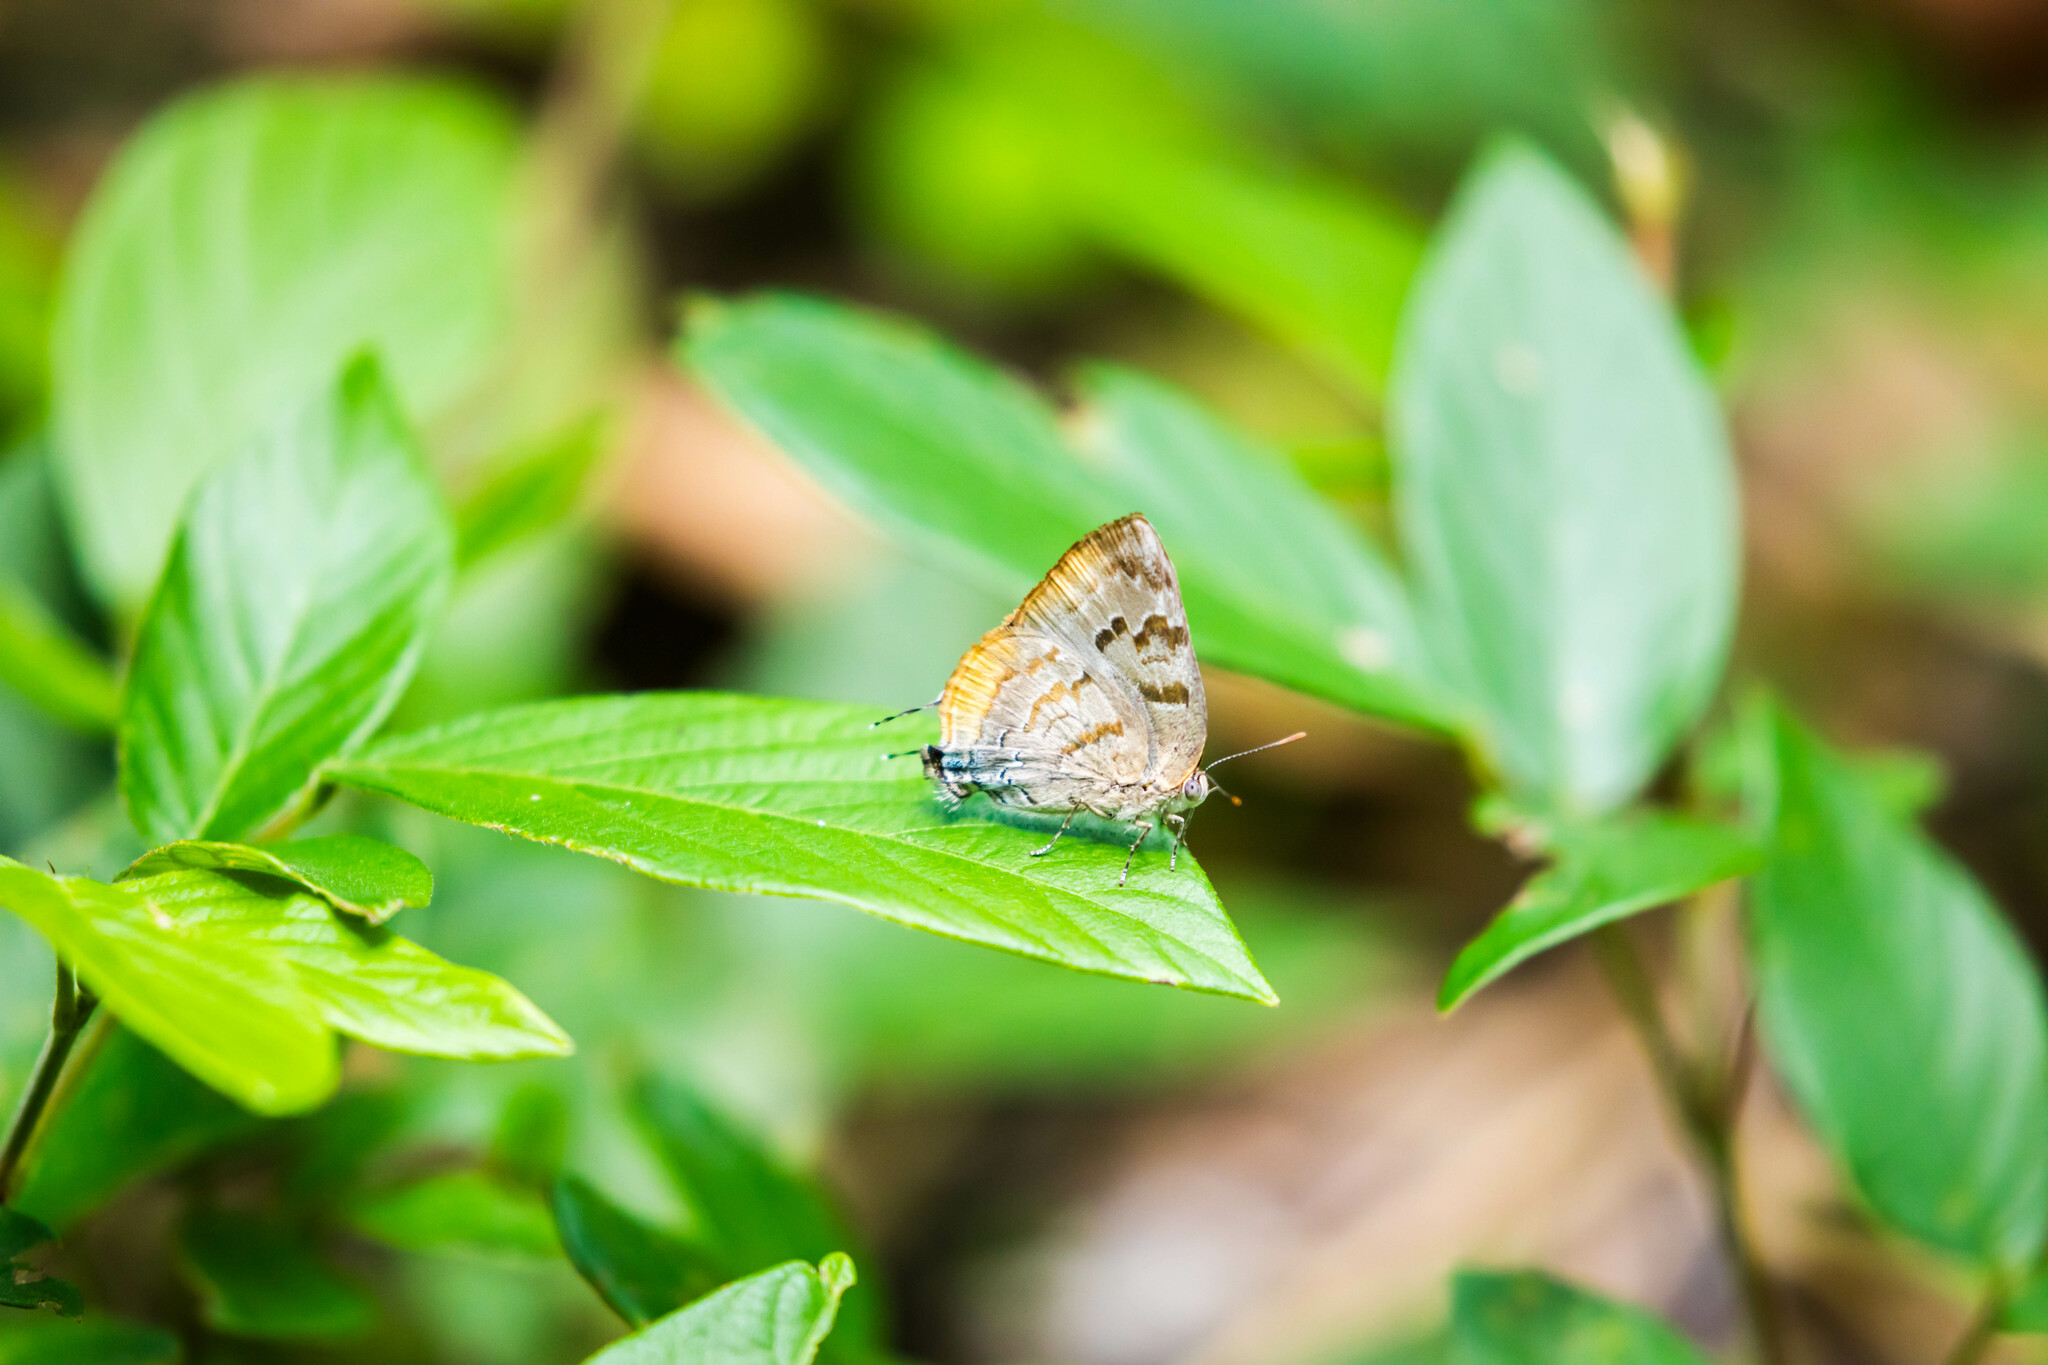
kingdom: Animalia
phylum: Arthropoda
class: Insecta
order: Lepidoptera
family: Lycaenidae
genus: Rekoa
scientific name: Rekoa palegon
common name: Gold-bordered hairstreak
